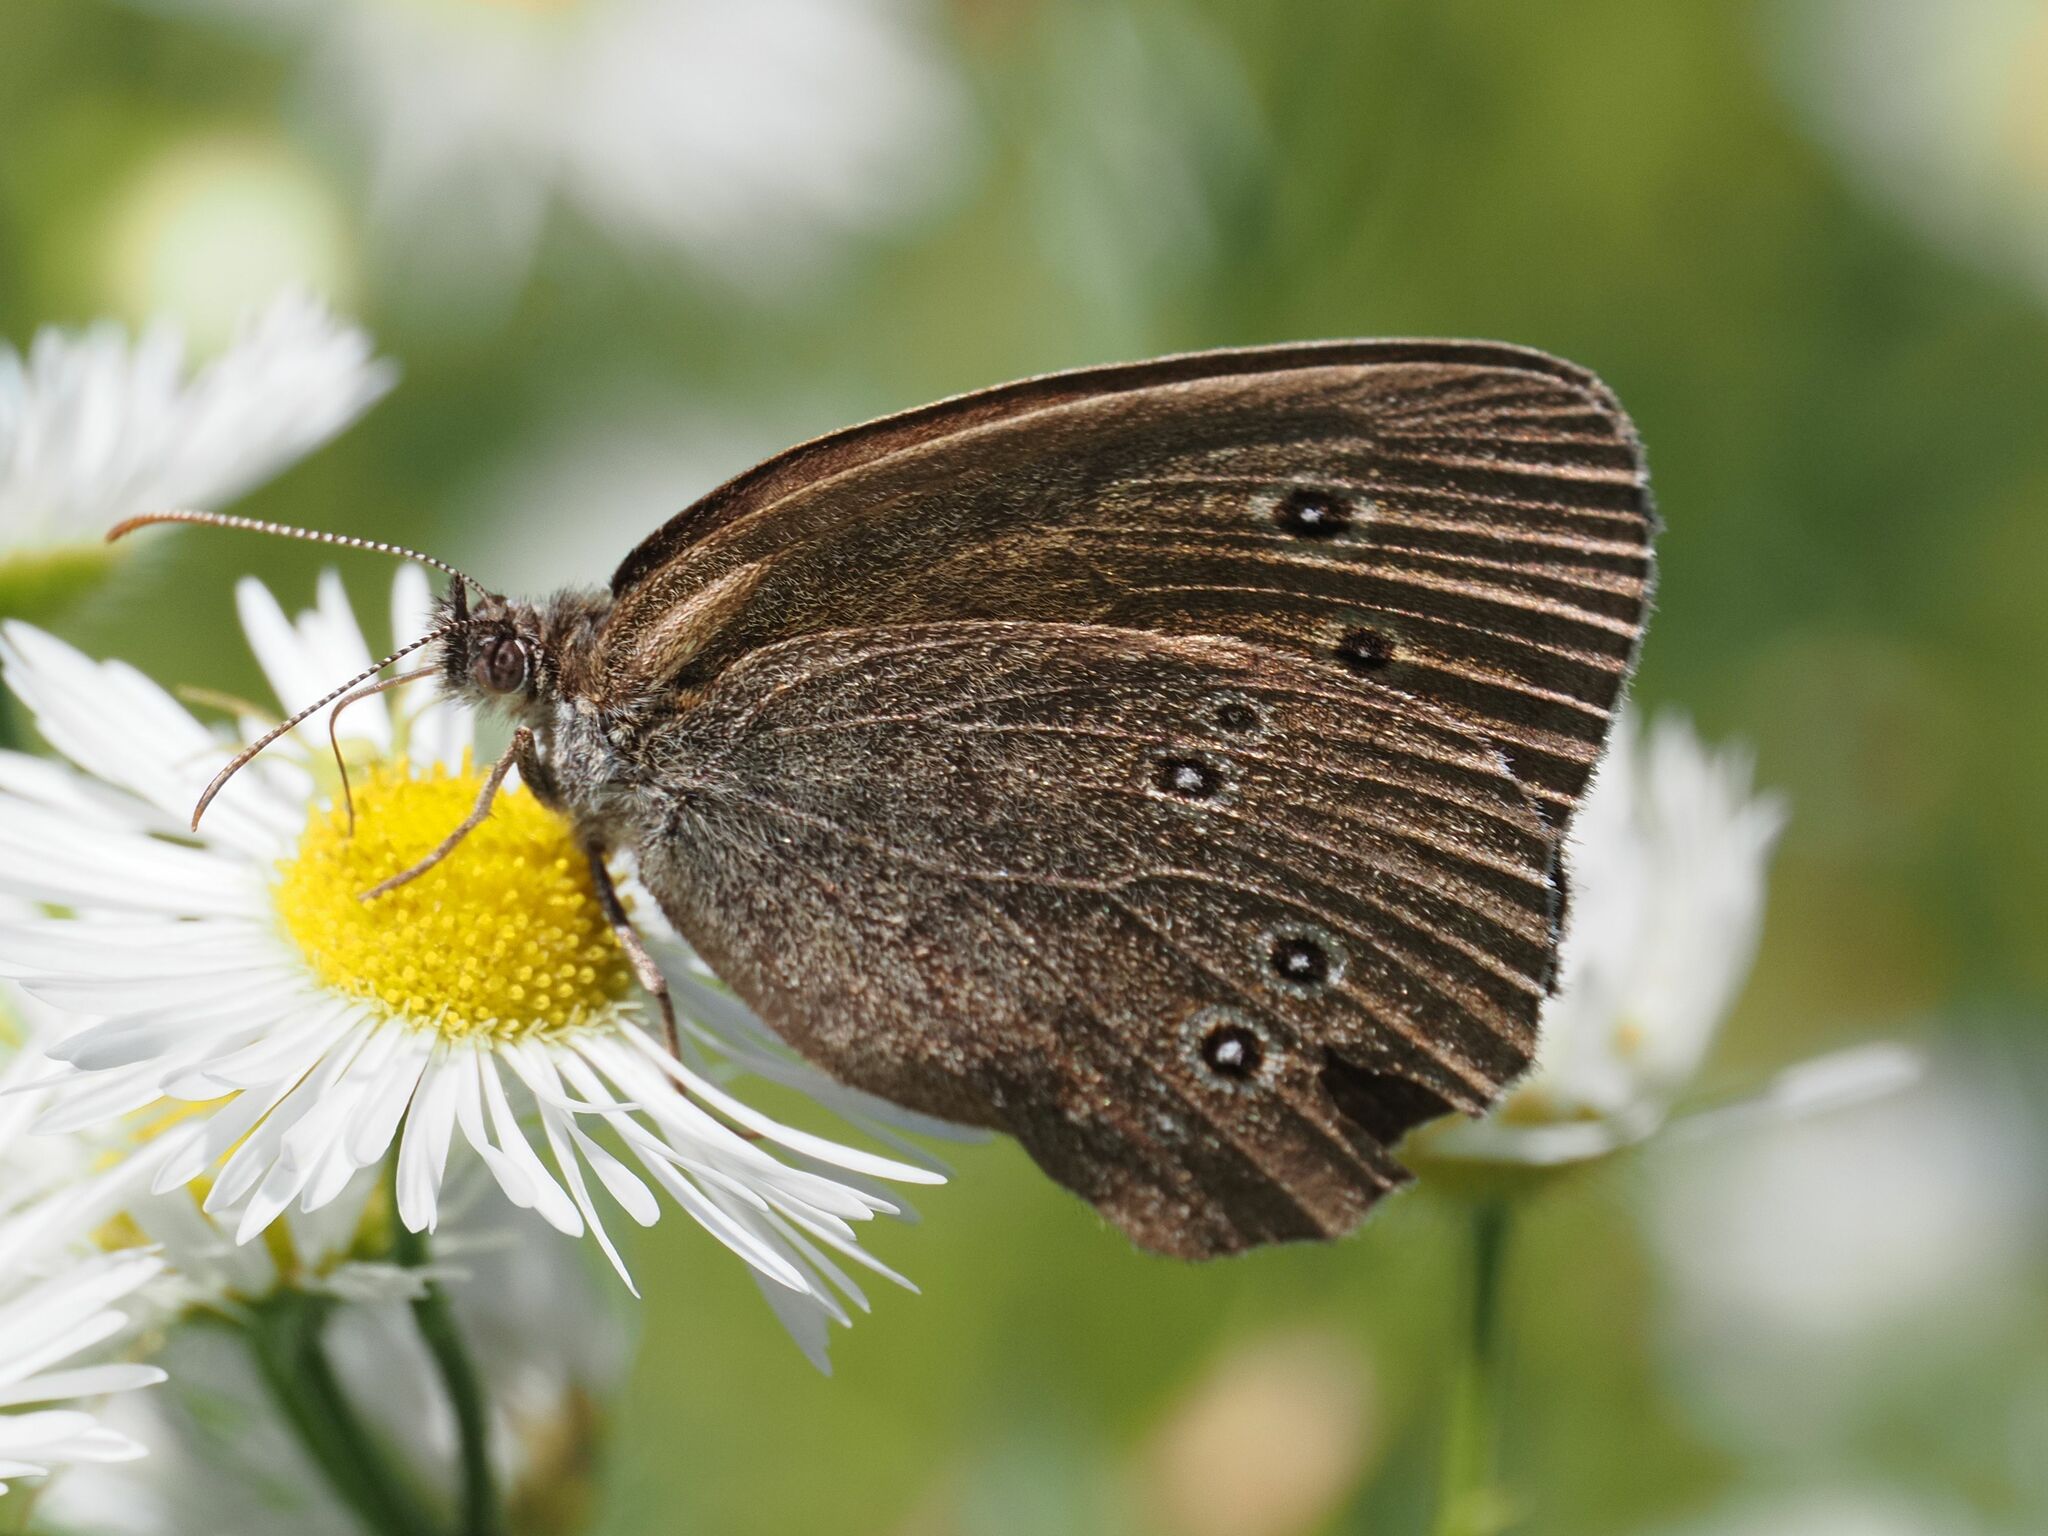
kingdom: Animalia
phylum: Arthropoda
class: Insecta
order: Lepidoptera
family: Nymphalidae
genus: Aphantopus
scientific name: Aphantopus hyperantus
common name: Ringlet
